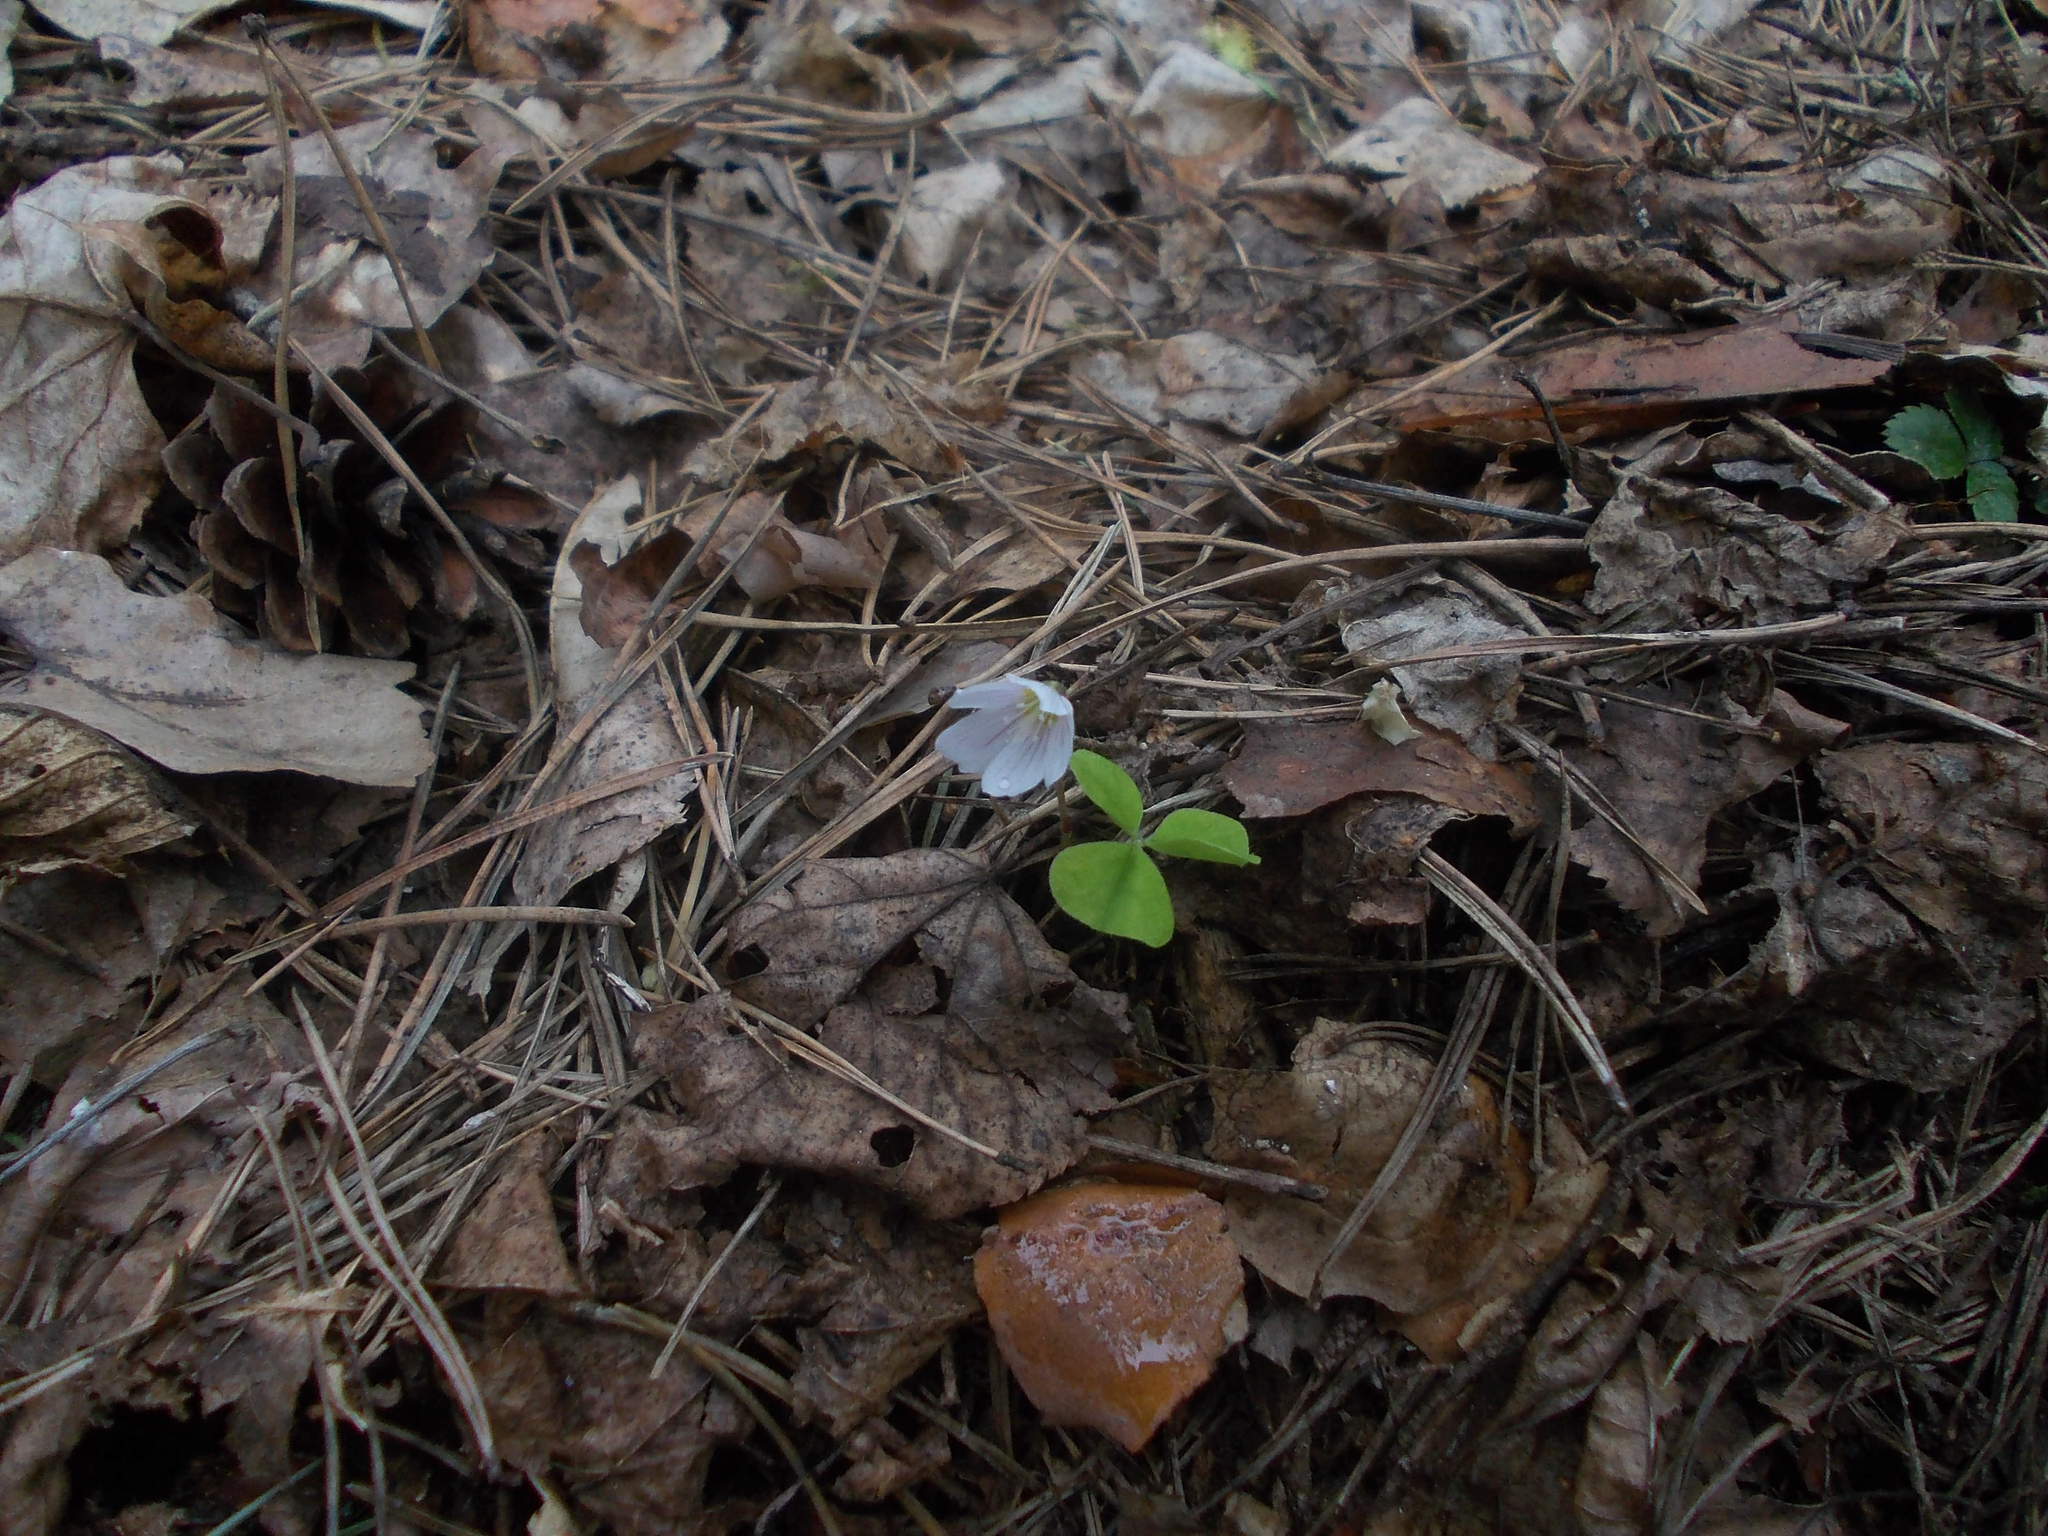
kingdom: Plantae
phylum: Tracheophyta
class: Magnoliopsida
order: Oxalidales
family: Oxalidaceae
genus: Oxalis
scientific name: Oxalis acetosella
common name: Wood-sorrel
